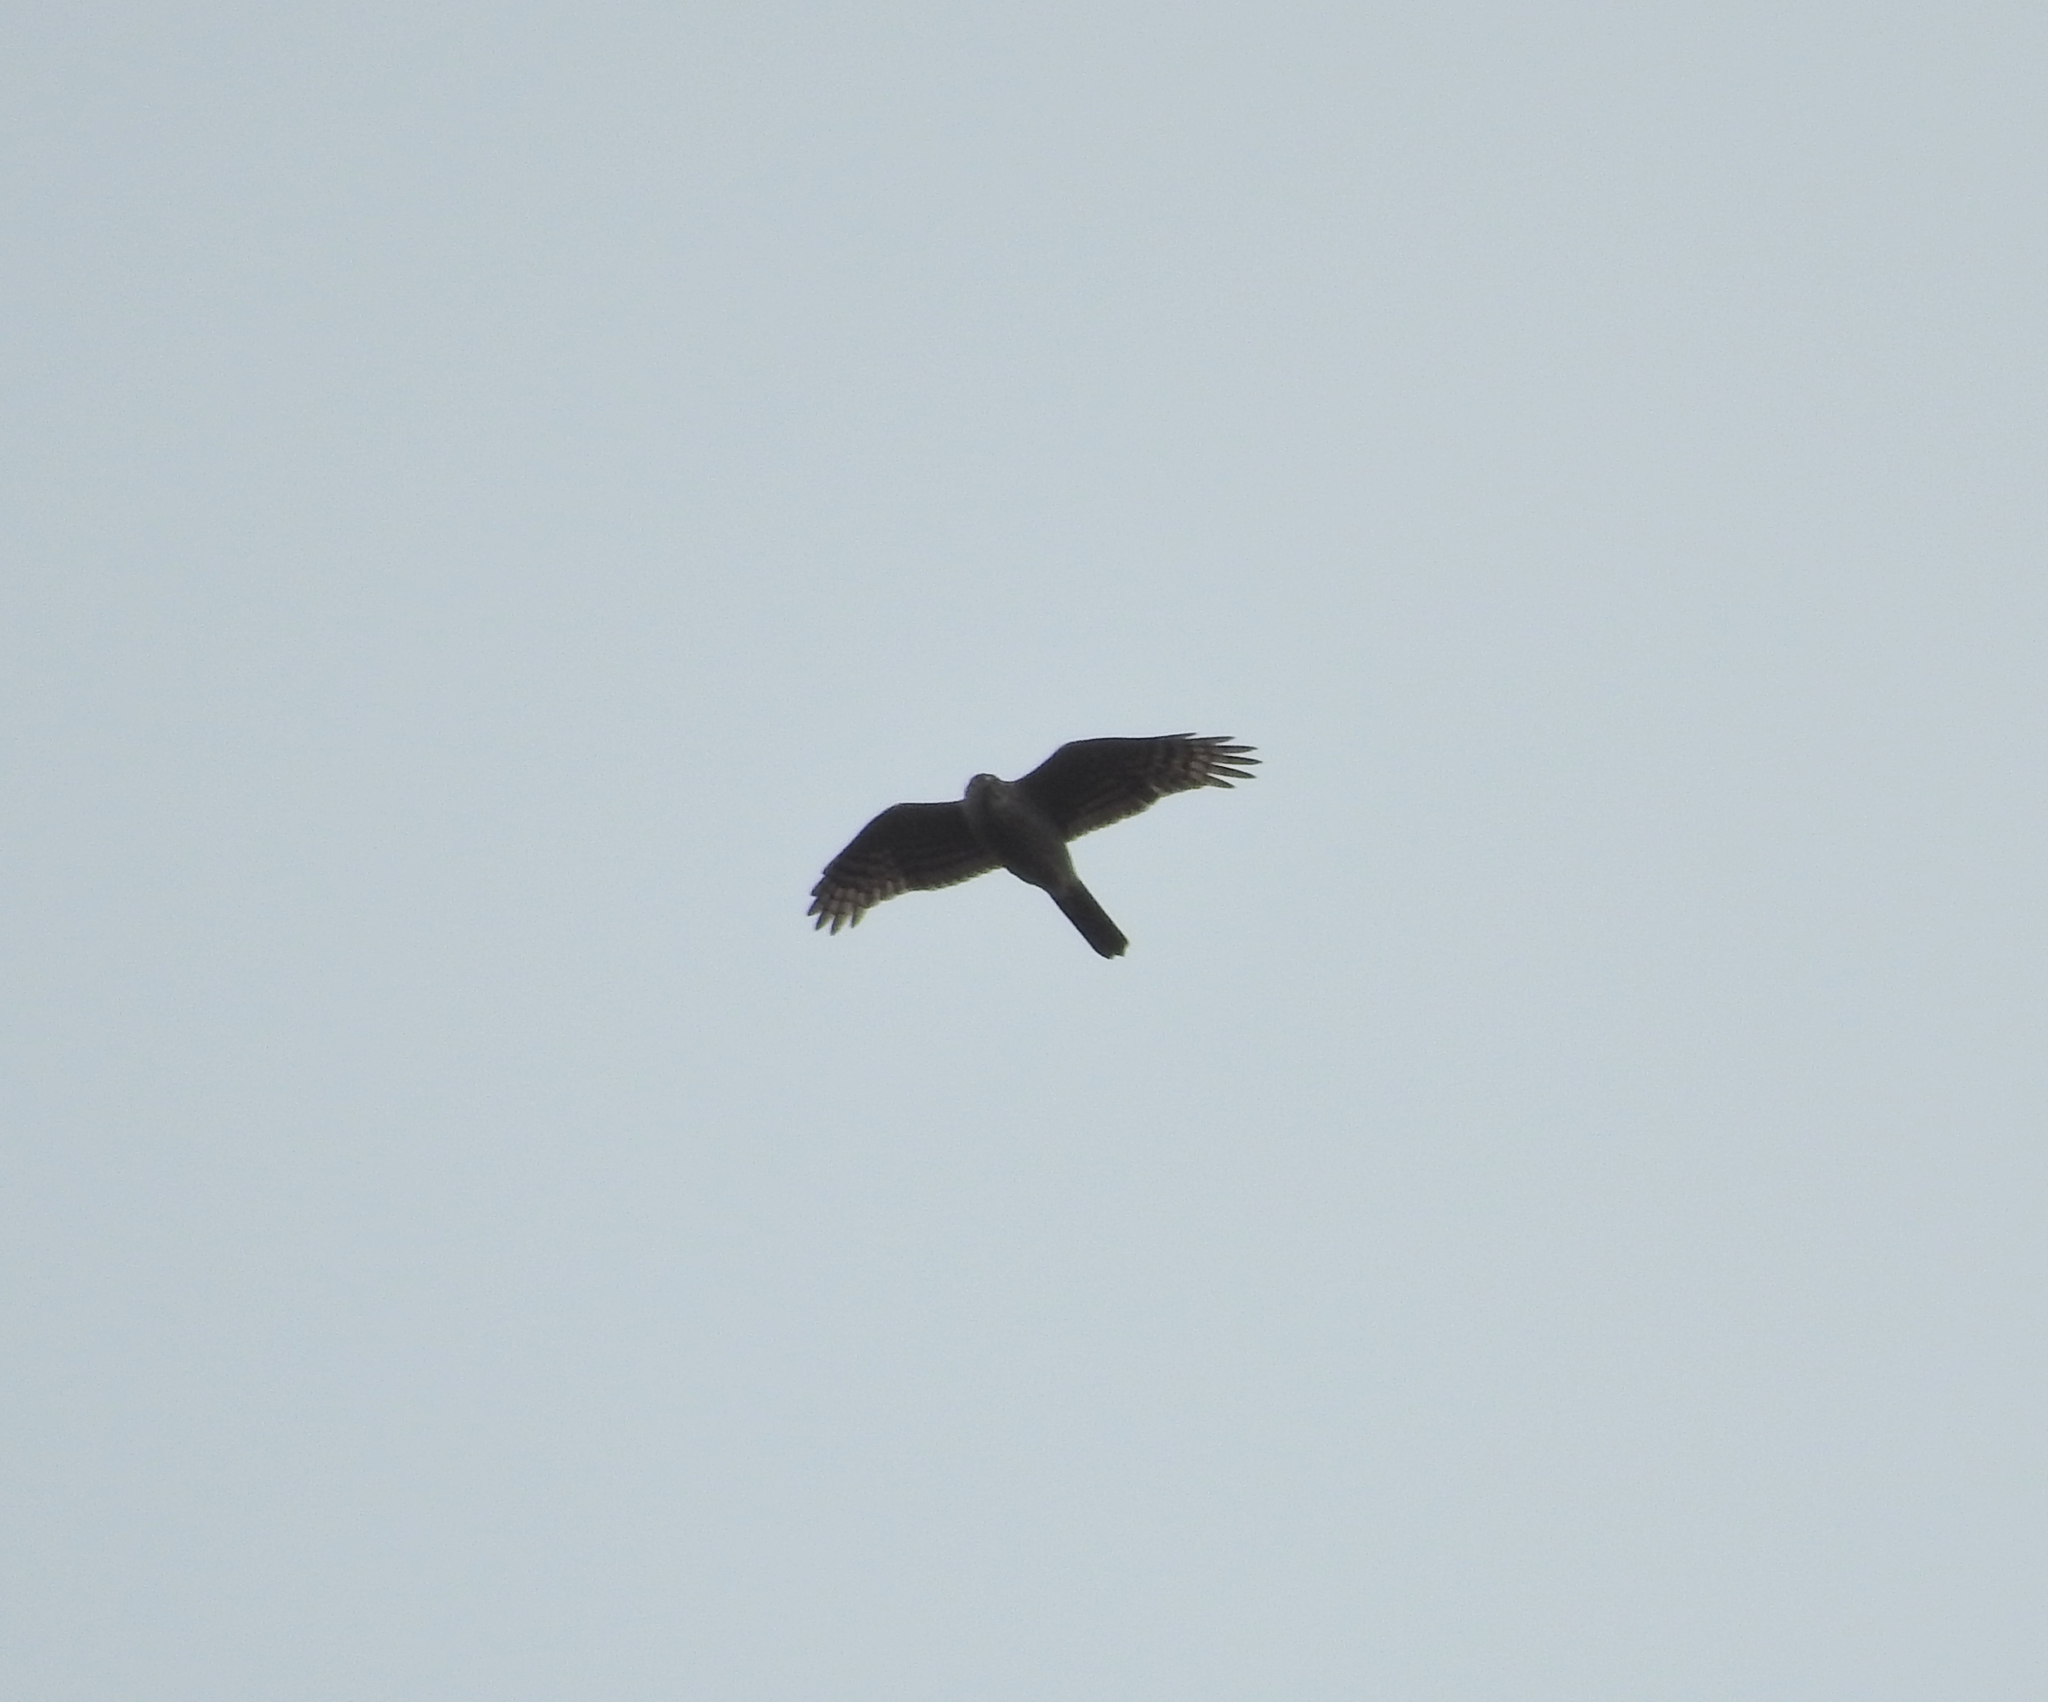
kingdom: Animalia
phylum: Chordata
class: Aves
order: Accipitriformes
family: Accipitridae
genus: Accipiter
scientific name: Accipiter nisus
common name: Eurasian sparrowhawk
